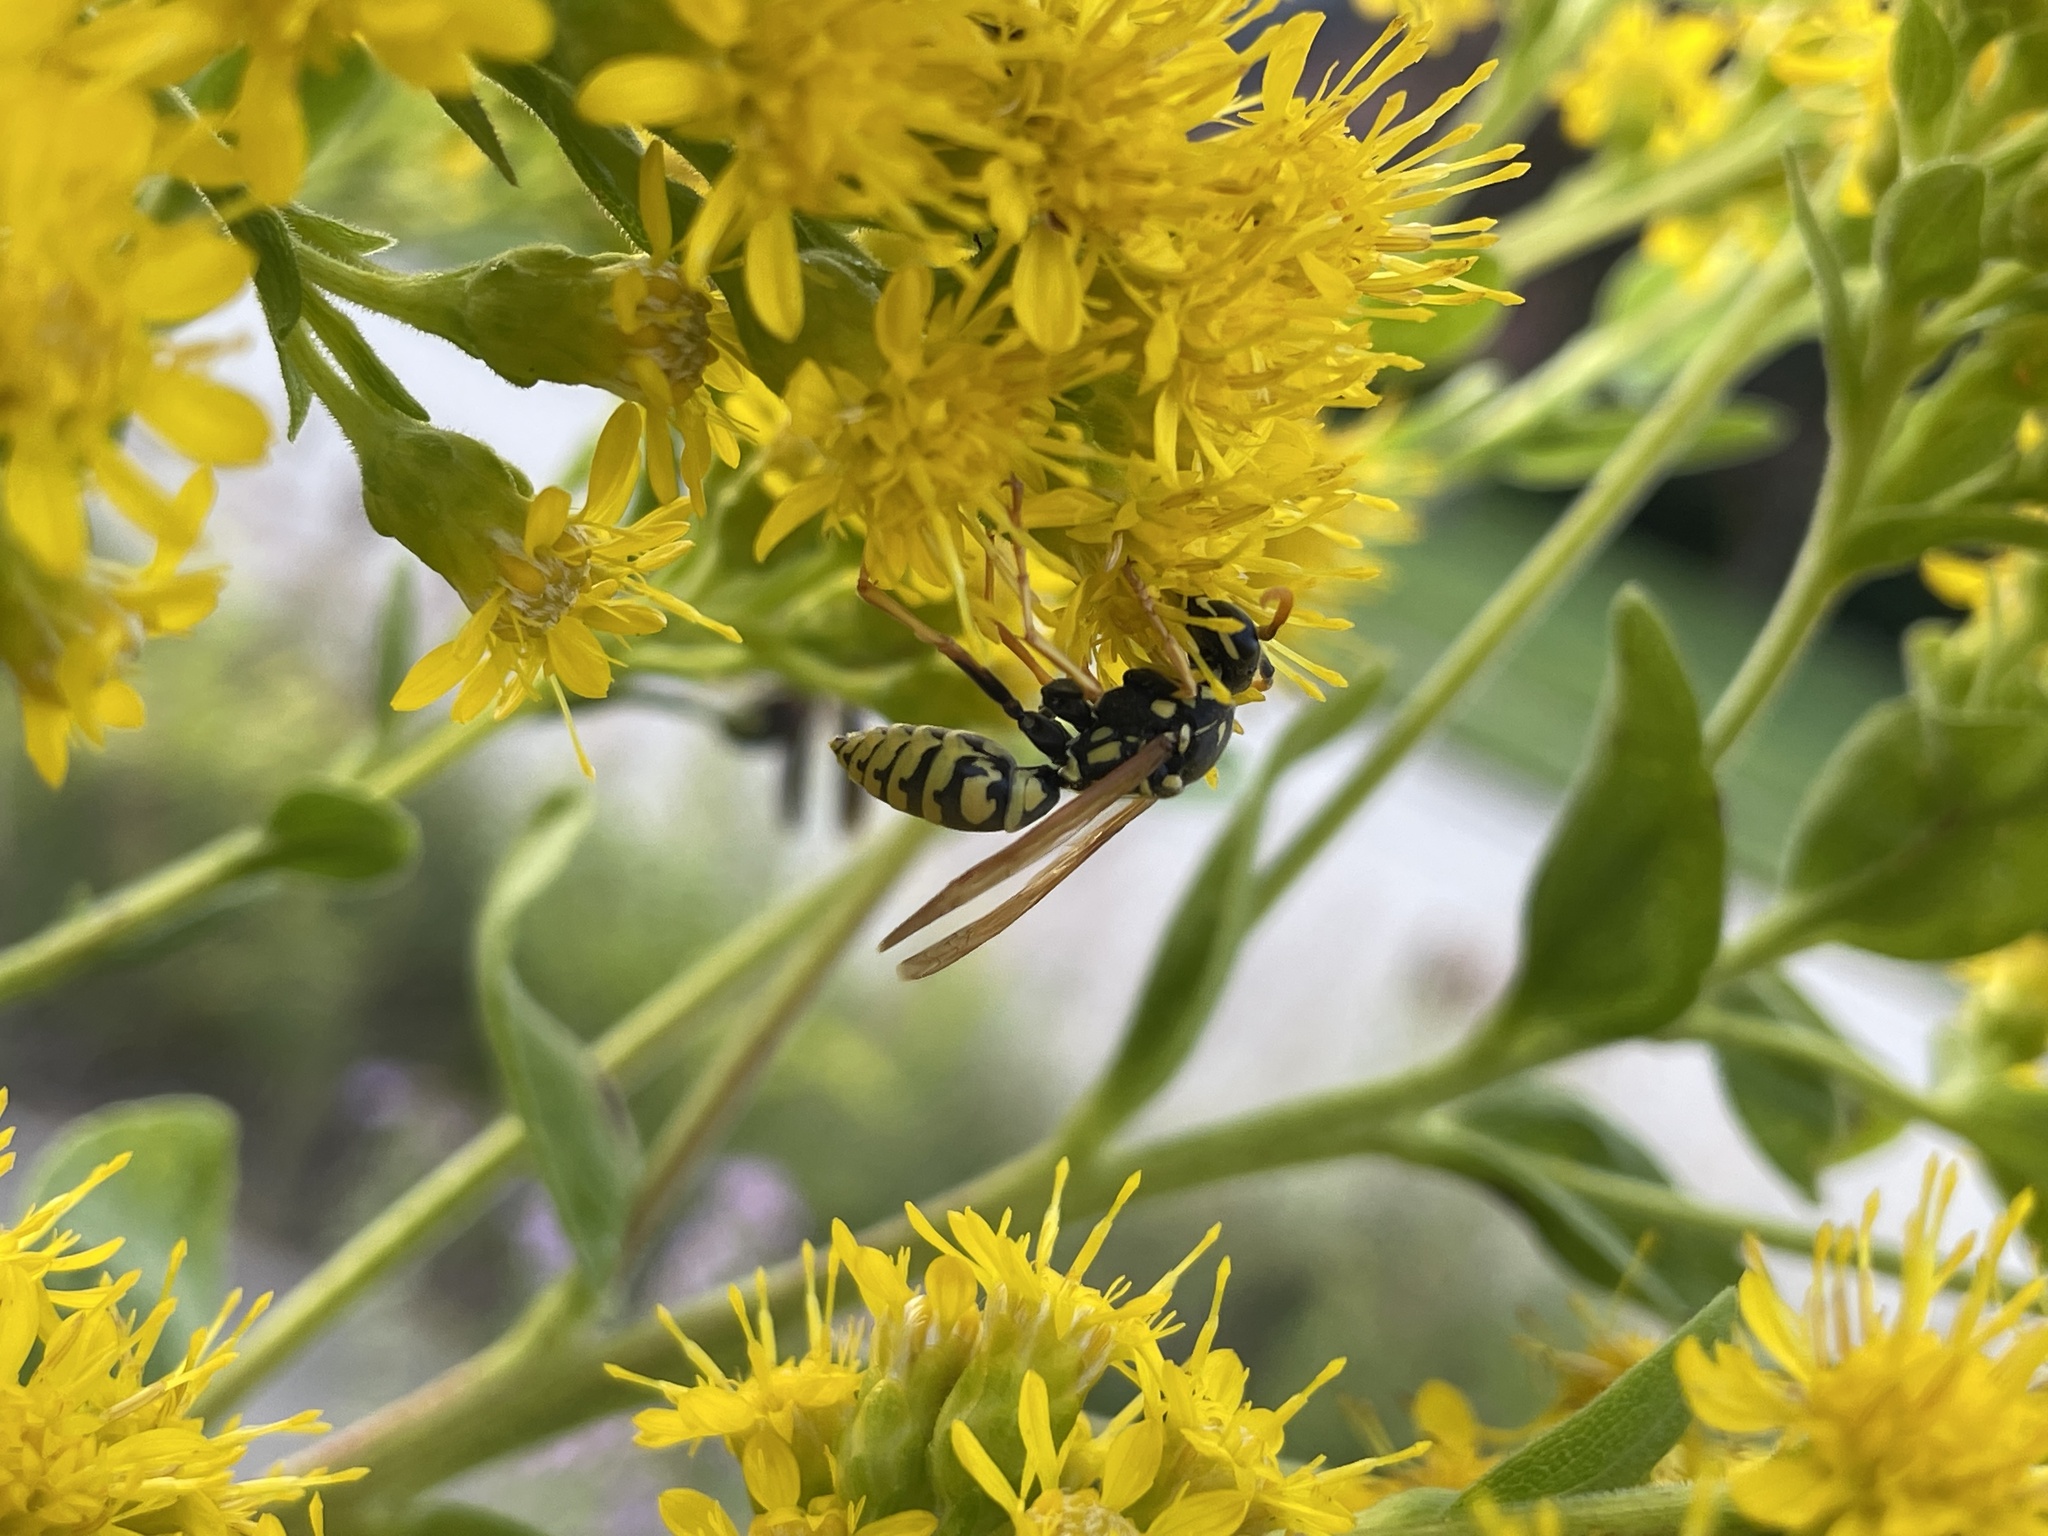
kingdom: Animalia
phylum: Arthropoda
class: Insecta
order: Hymenoptera
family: Eumenidae
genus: Polistes
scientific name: Polistes dominula
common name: Paper wasp
